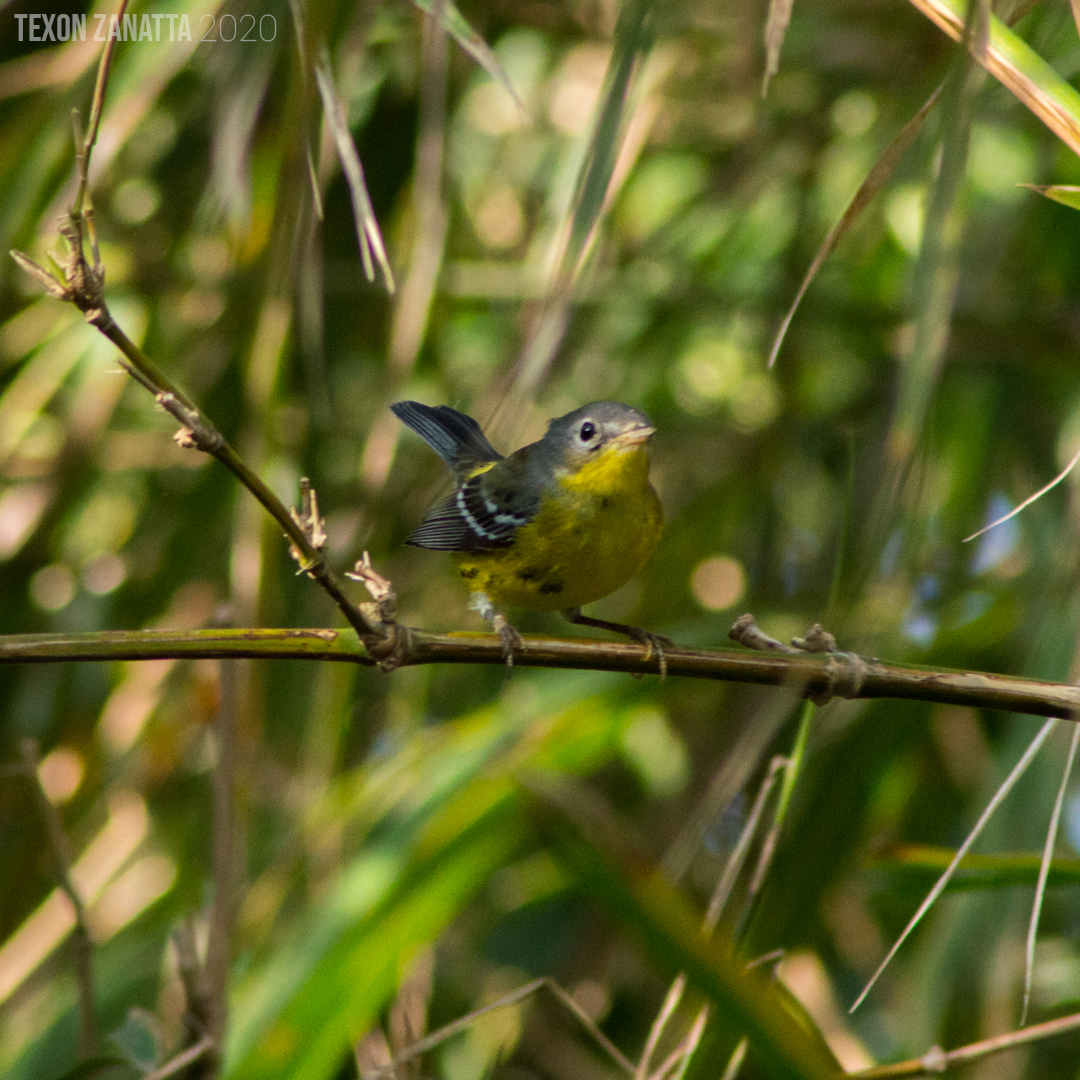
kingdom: Animalia
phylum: Chordata
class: Aves
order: Passeriformes
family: Parulidae
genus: Setophaga
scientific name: Setophaga magnolia
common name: Magnolia warbler
